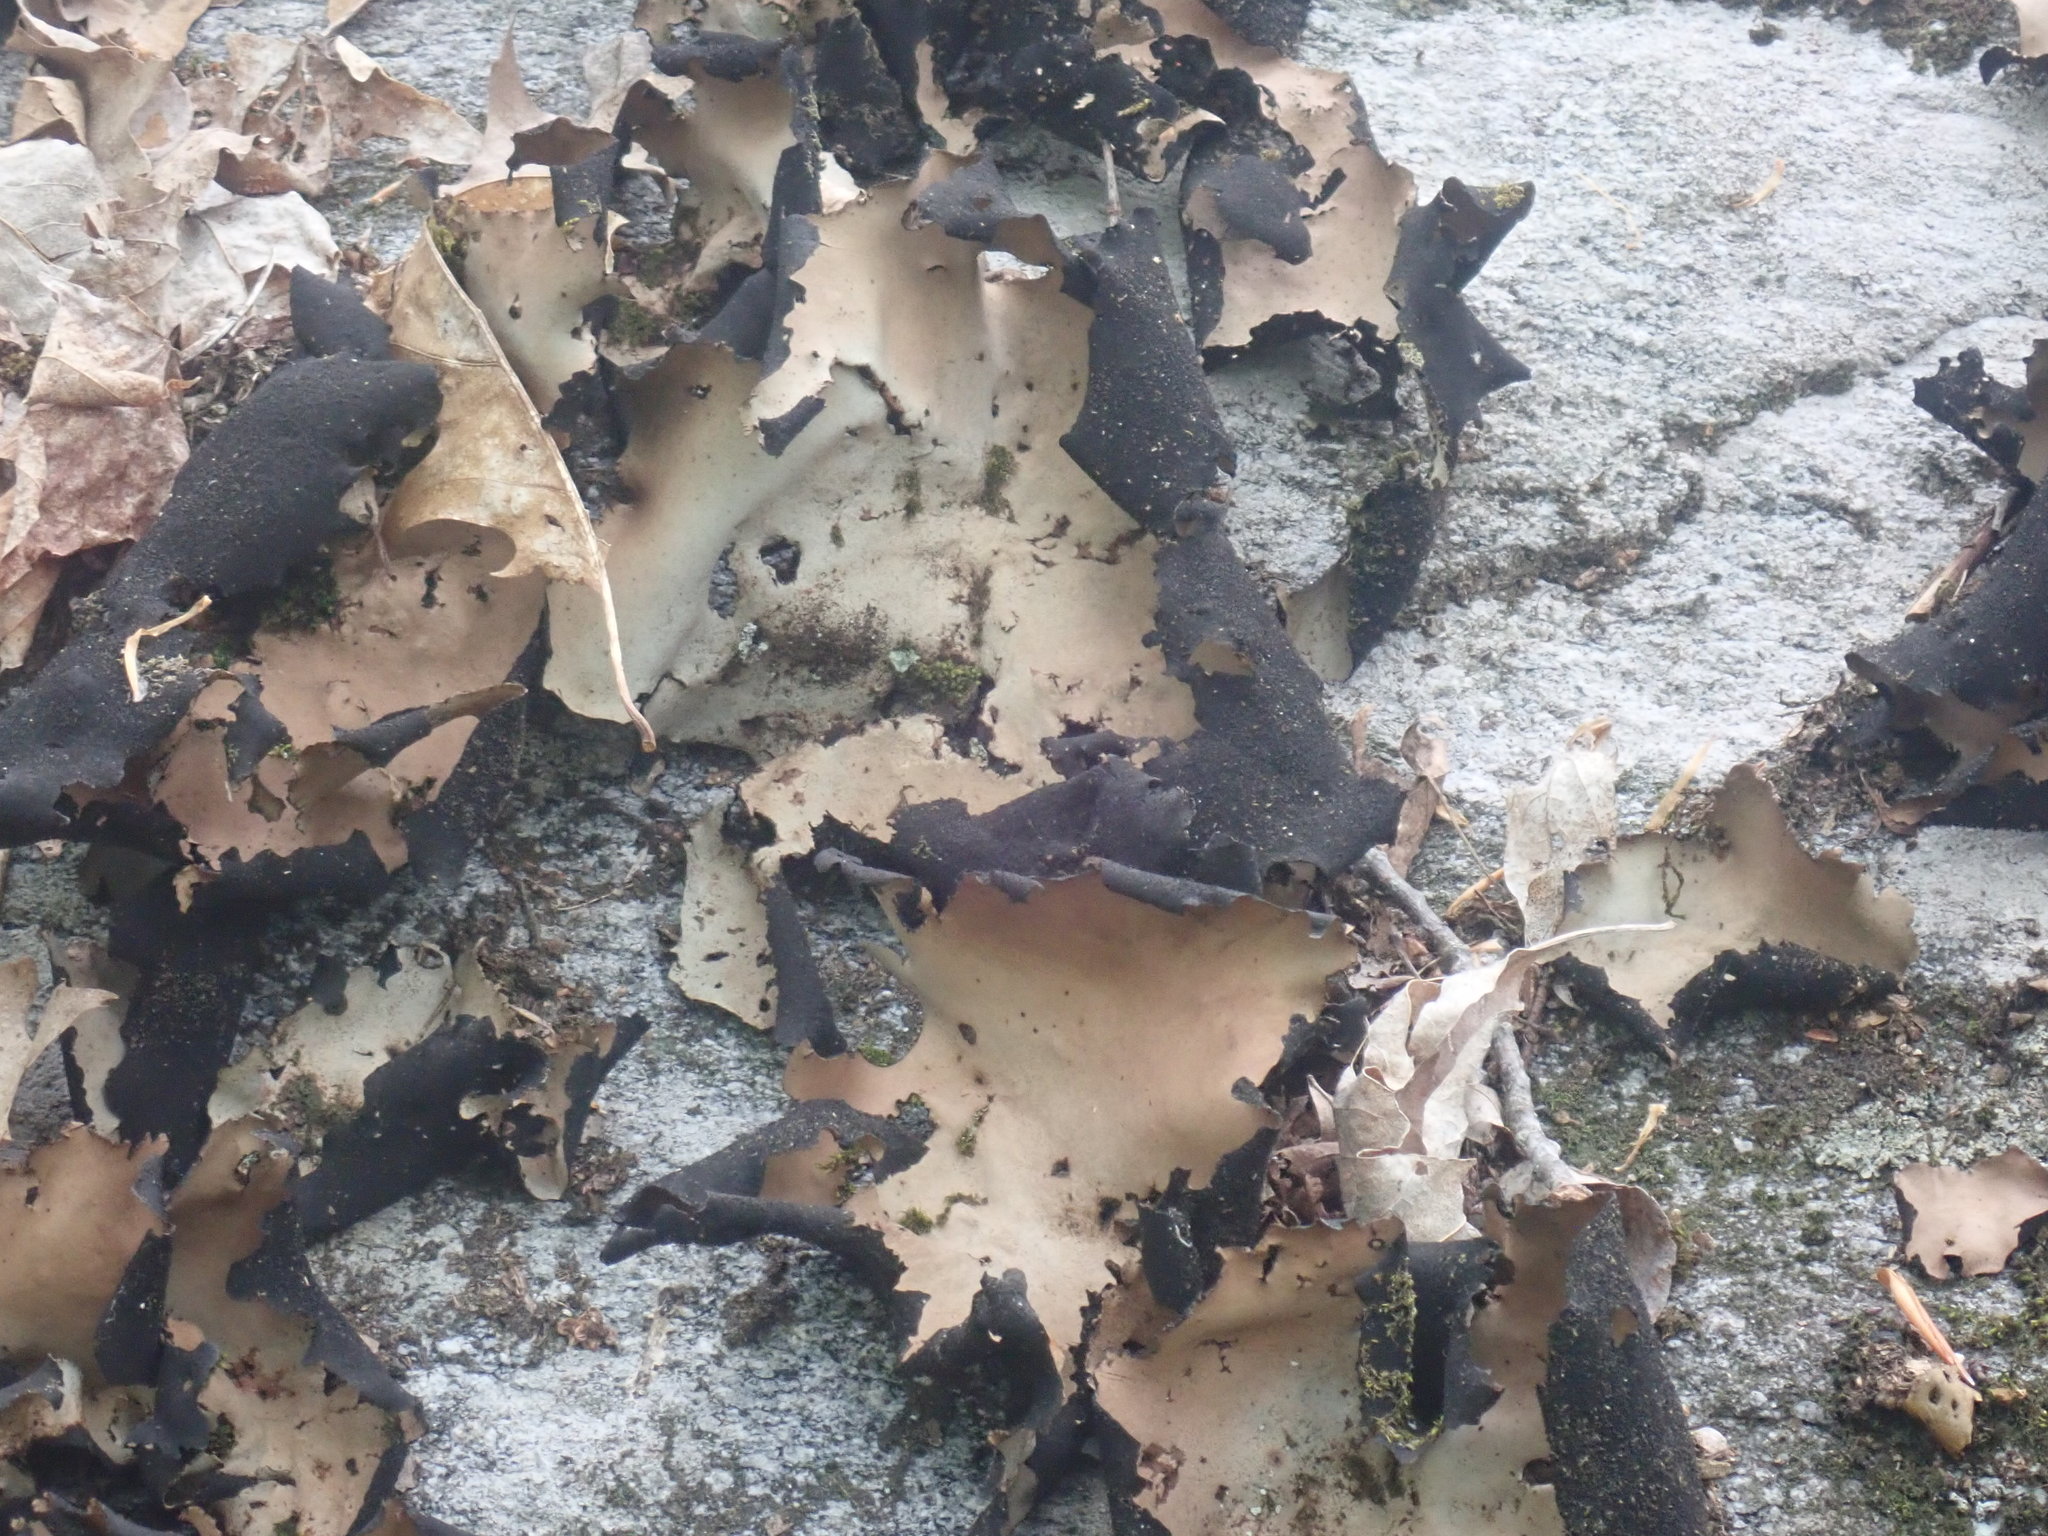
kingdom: Fungi
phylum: Ascomycota
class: Lecanoromycetes
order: Umbilicariales
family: Umbilicariaceae
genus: Umbilicaria
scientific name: Umbilicaria mammulata
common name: Smooth rock tripe
